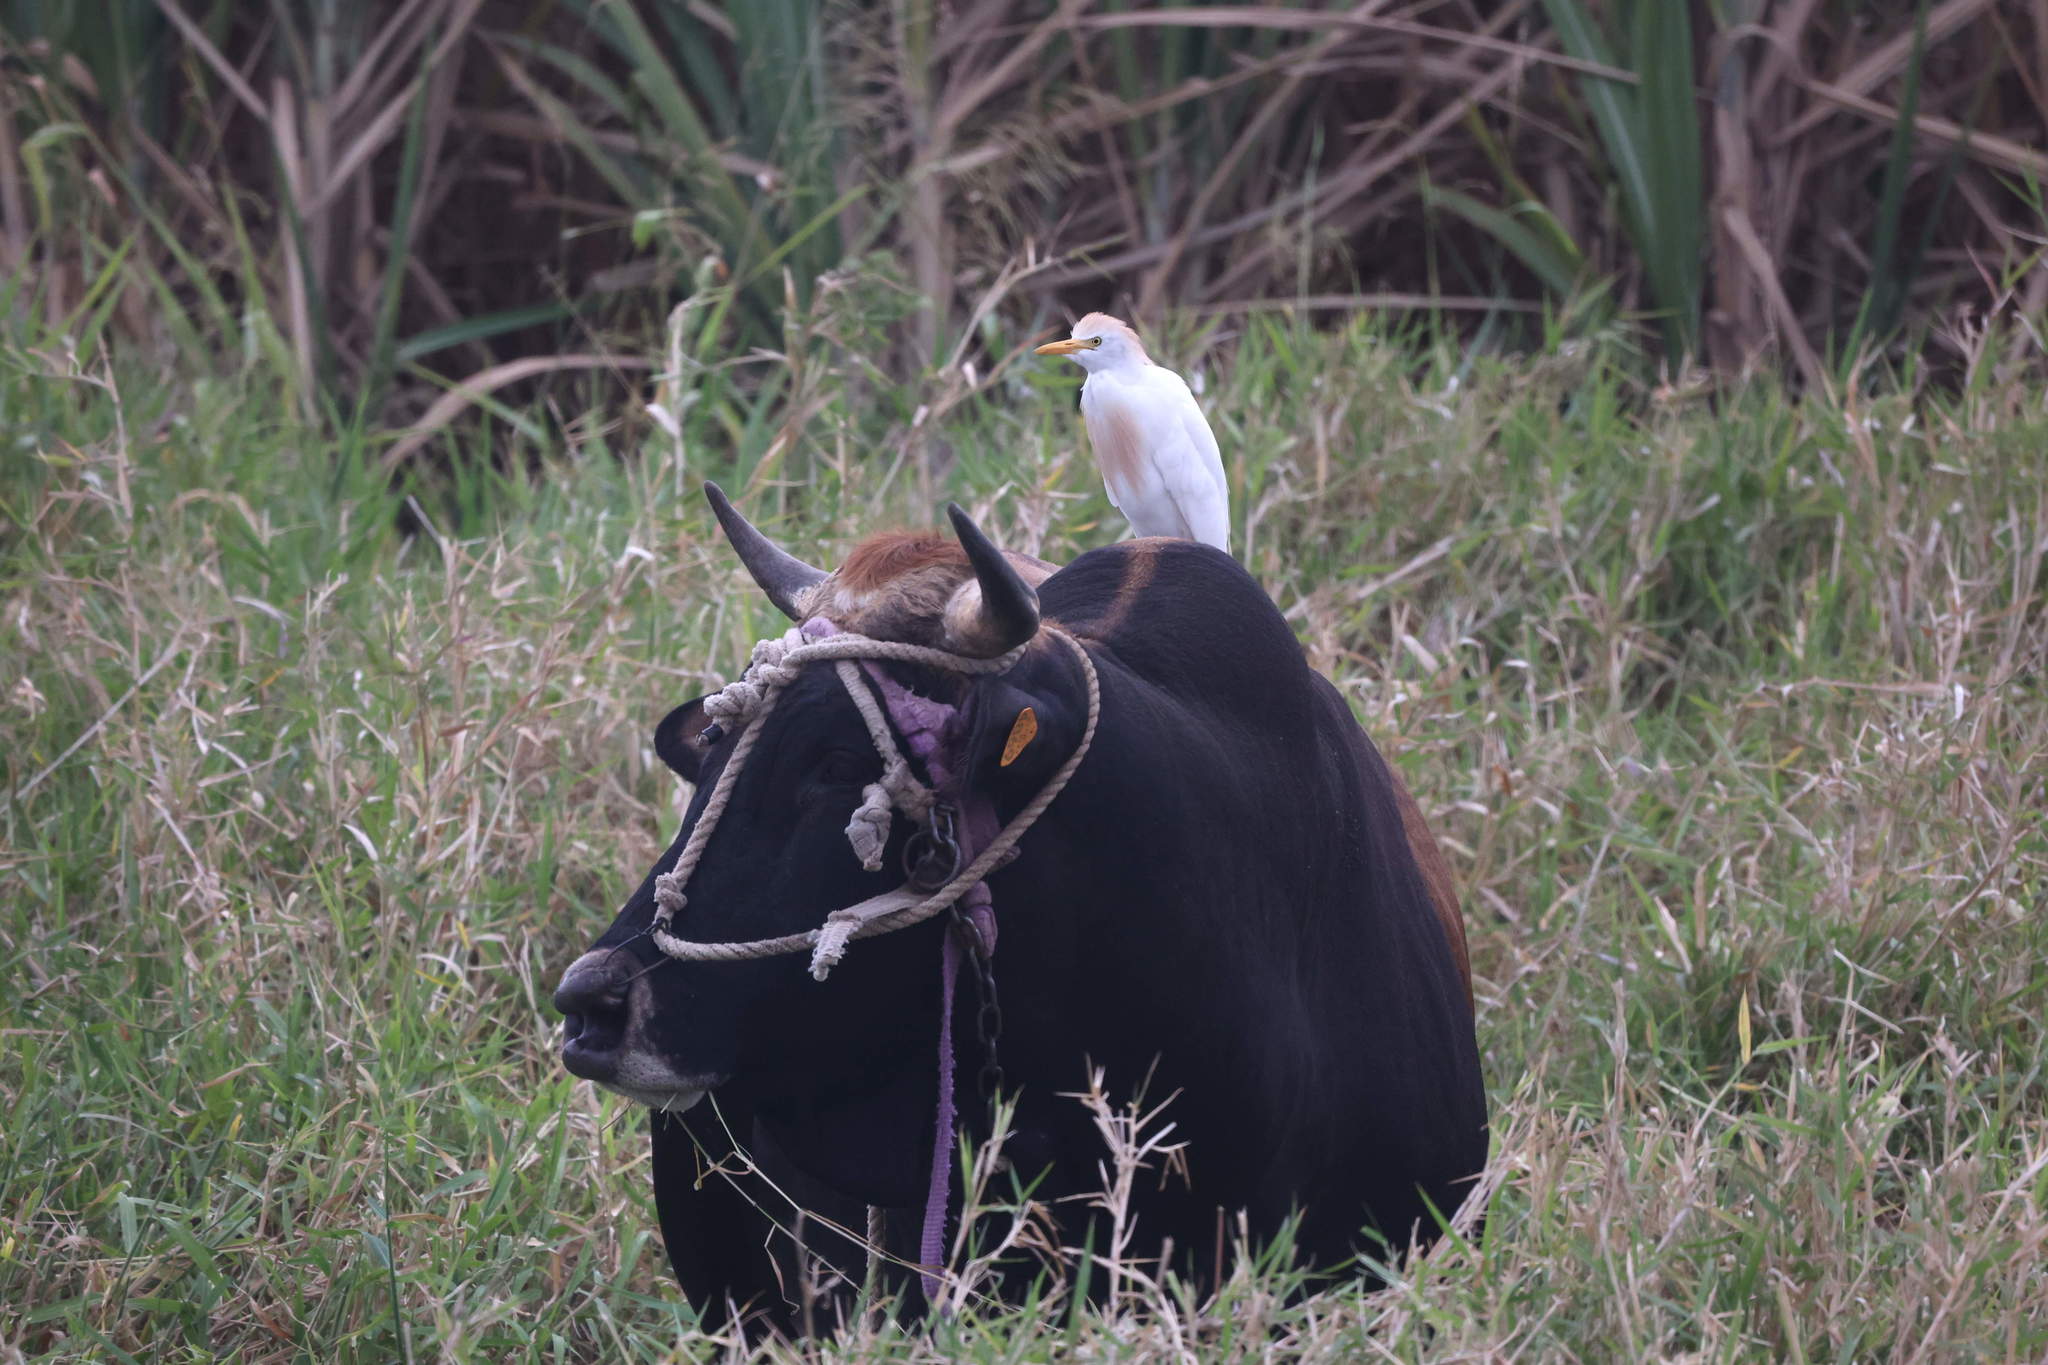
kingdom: Animalia
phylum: Chordata
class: Aves
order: Pelecaniformes
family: Ardeidae
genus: Bubulcus
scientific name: Bubulcus ibis
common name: Cattle egret
